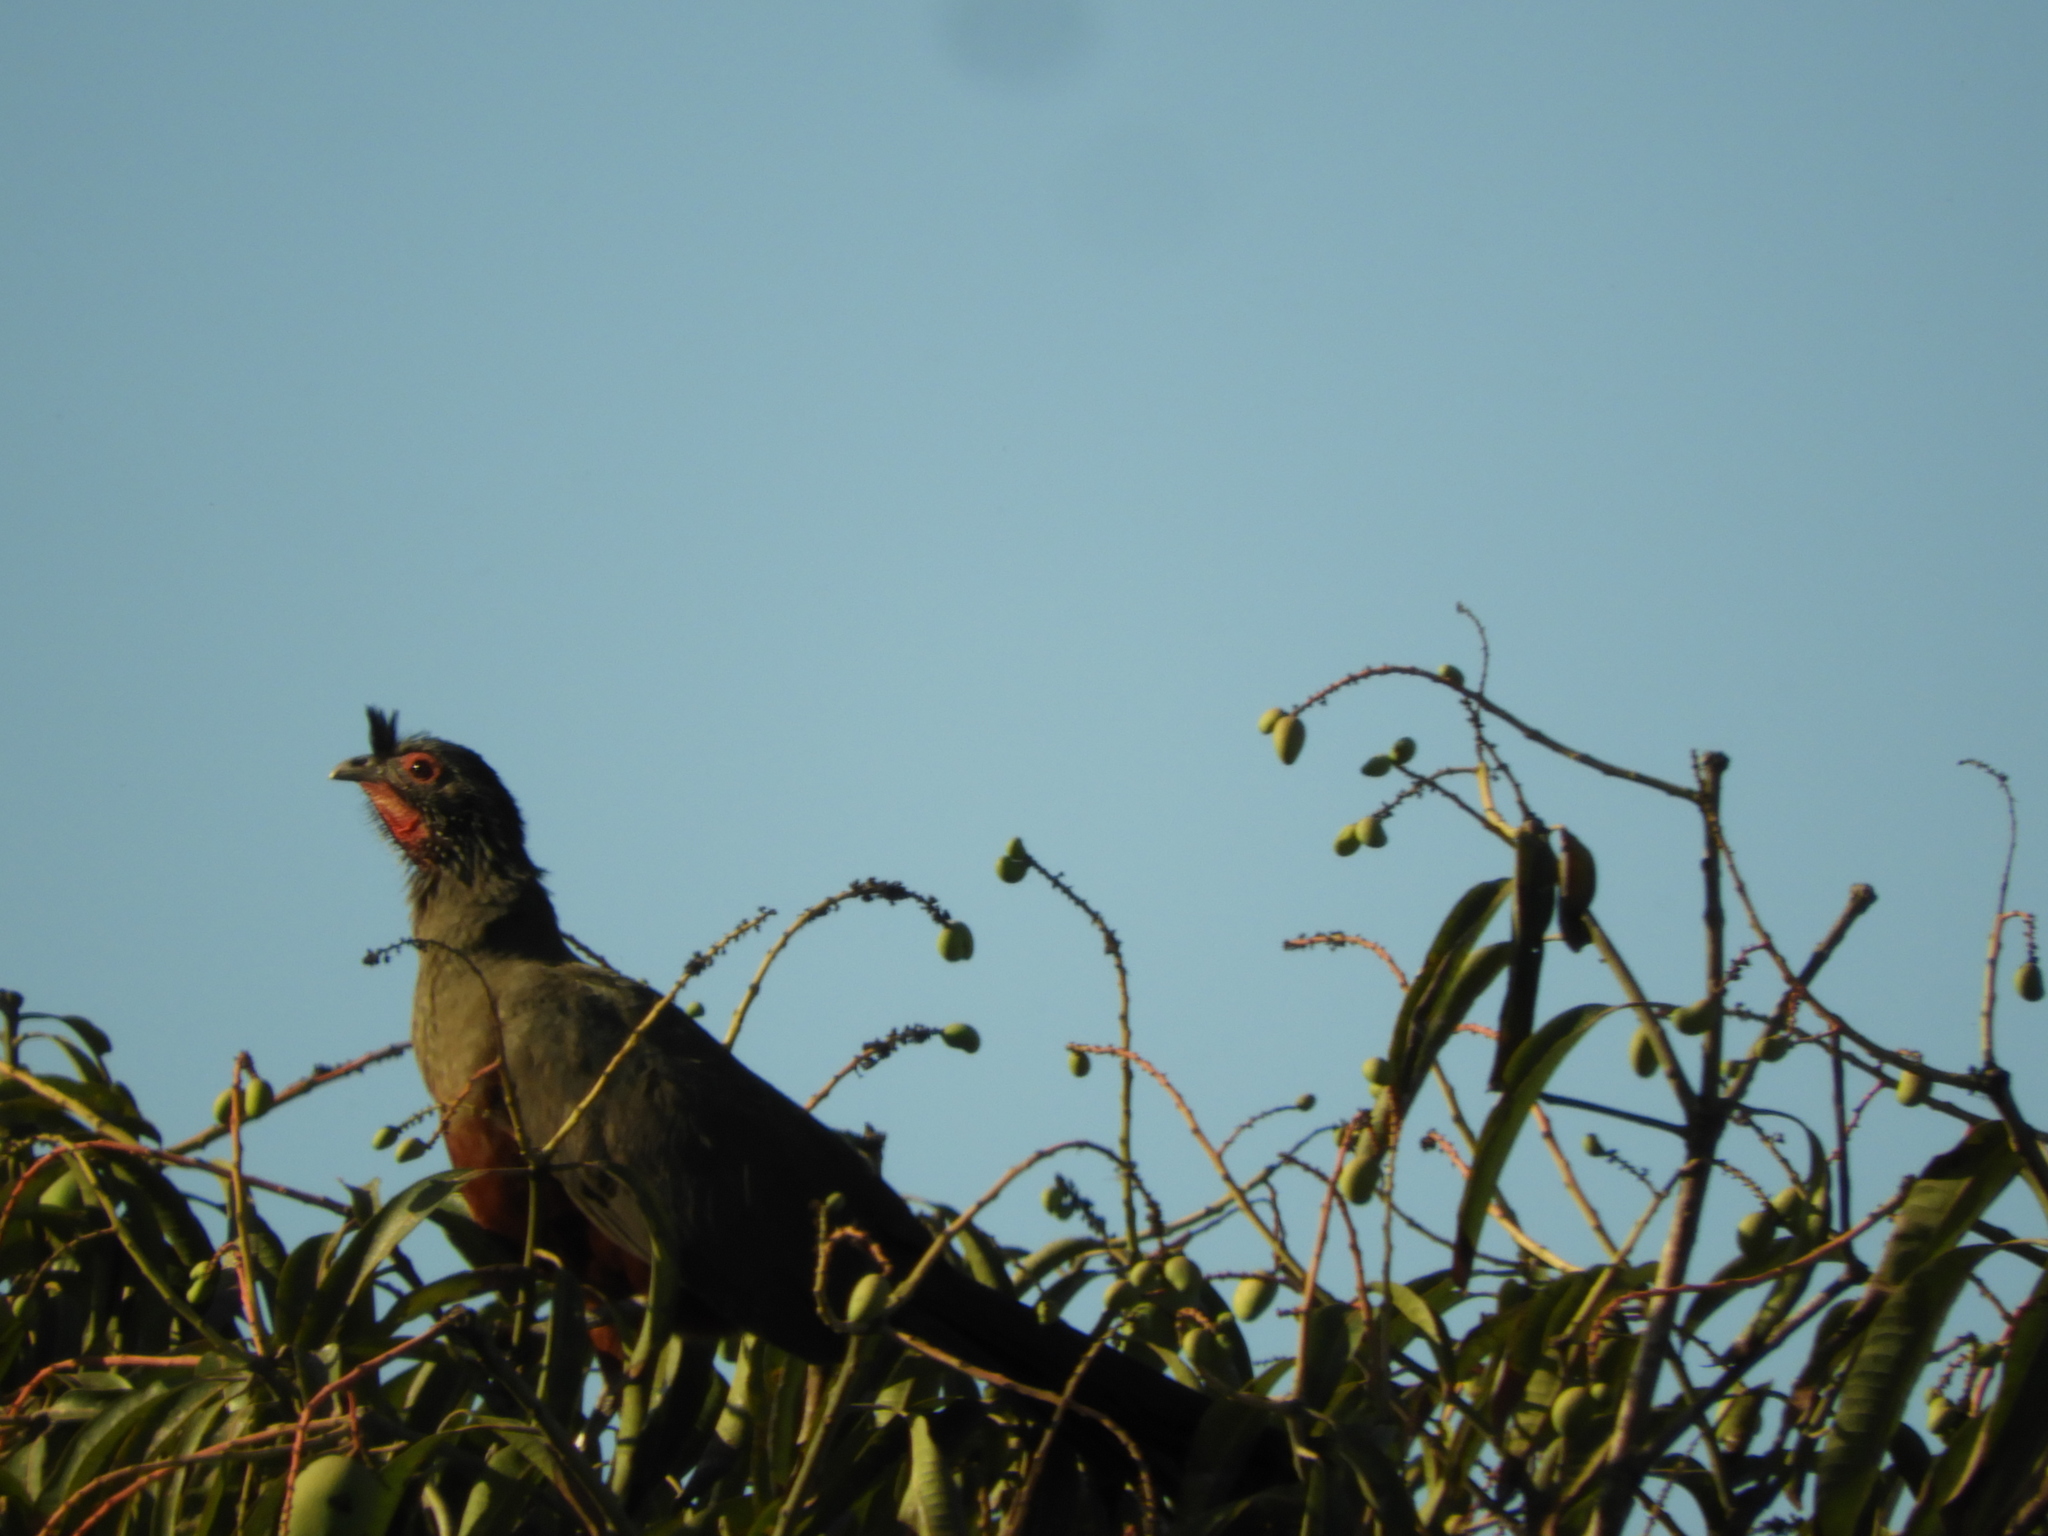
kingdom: Animalia
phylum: Chordata
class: Aves
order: Galliformes
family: Cracidae
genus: Ortalis
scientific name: Ortalis wagleri
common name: Rufous-bellied chachalaca
